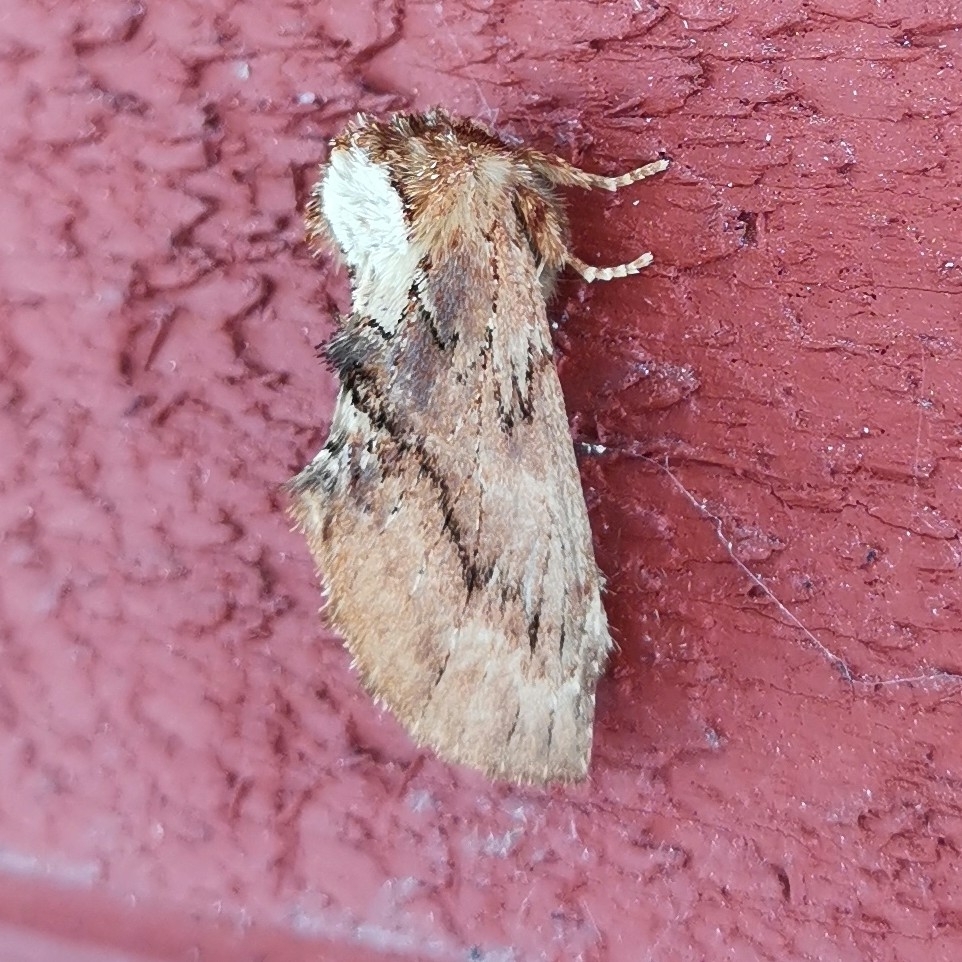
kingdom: Animalia
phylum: Arthropoda
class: Insecta
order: Lepidoptera
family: Notodontidae
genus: Ptilodon
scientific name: Ptilodon capucina
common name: Coxcomb prominent
